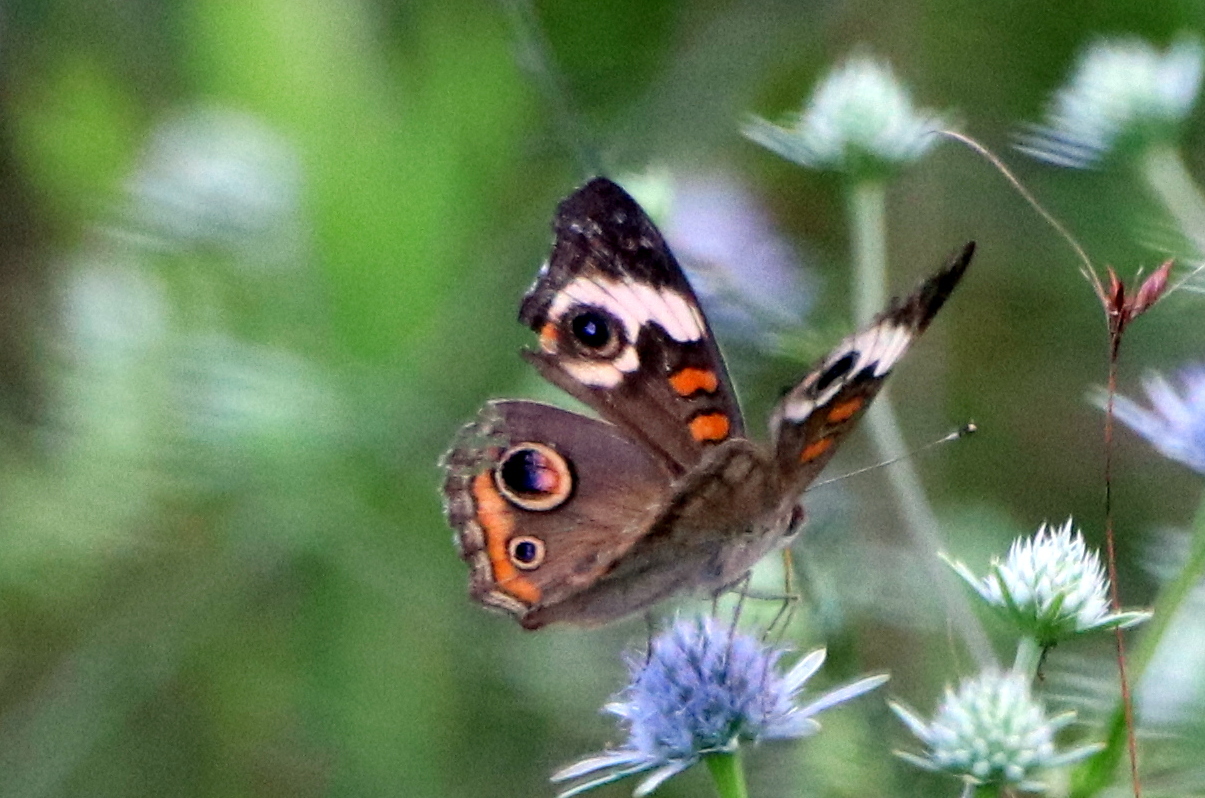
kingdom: Animalia
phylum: Arthropoda
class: Insecta
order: Lepidoptera
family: Nymphalidae
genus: Junonia
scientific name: Junonia coenia
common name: Common buckeye
